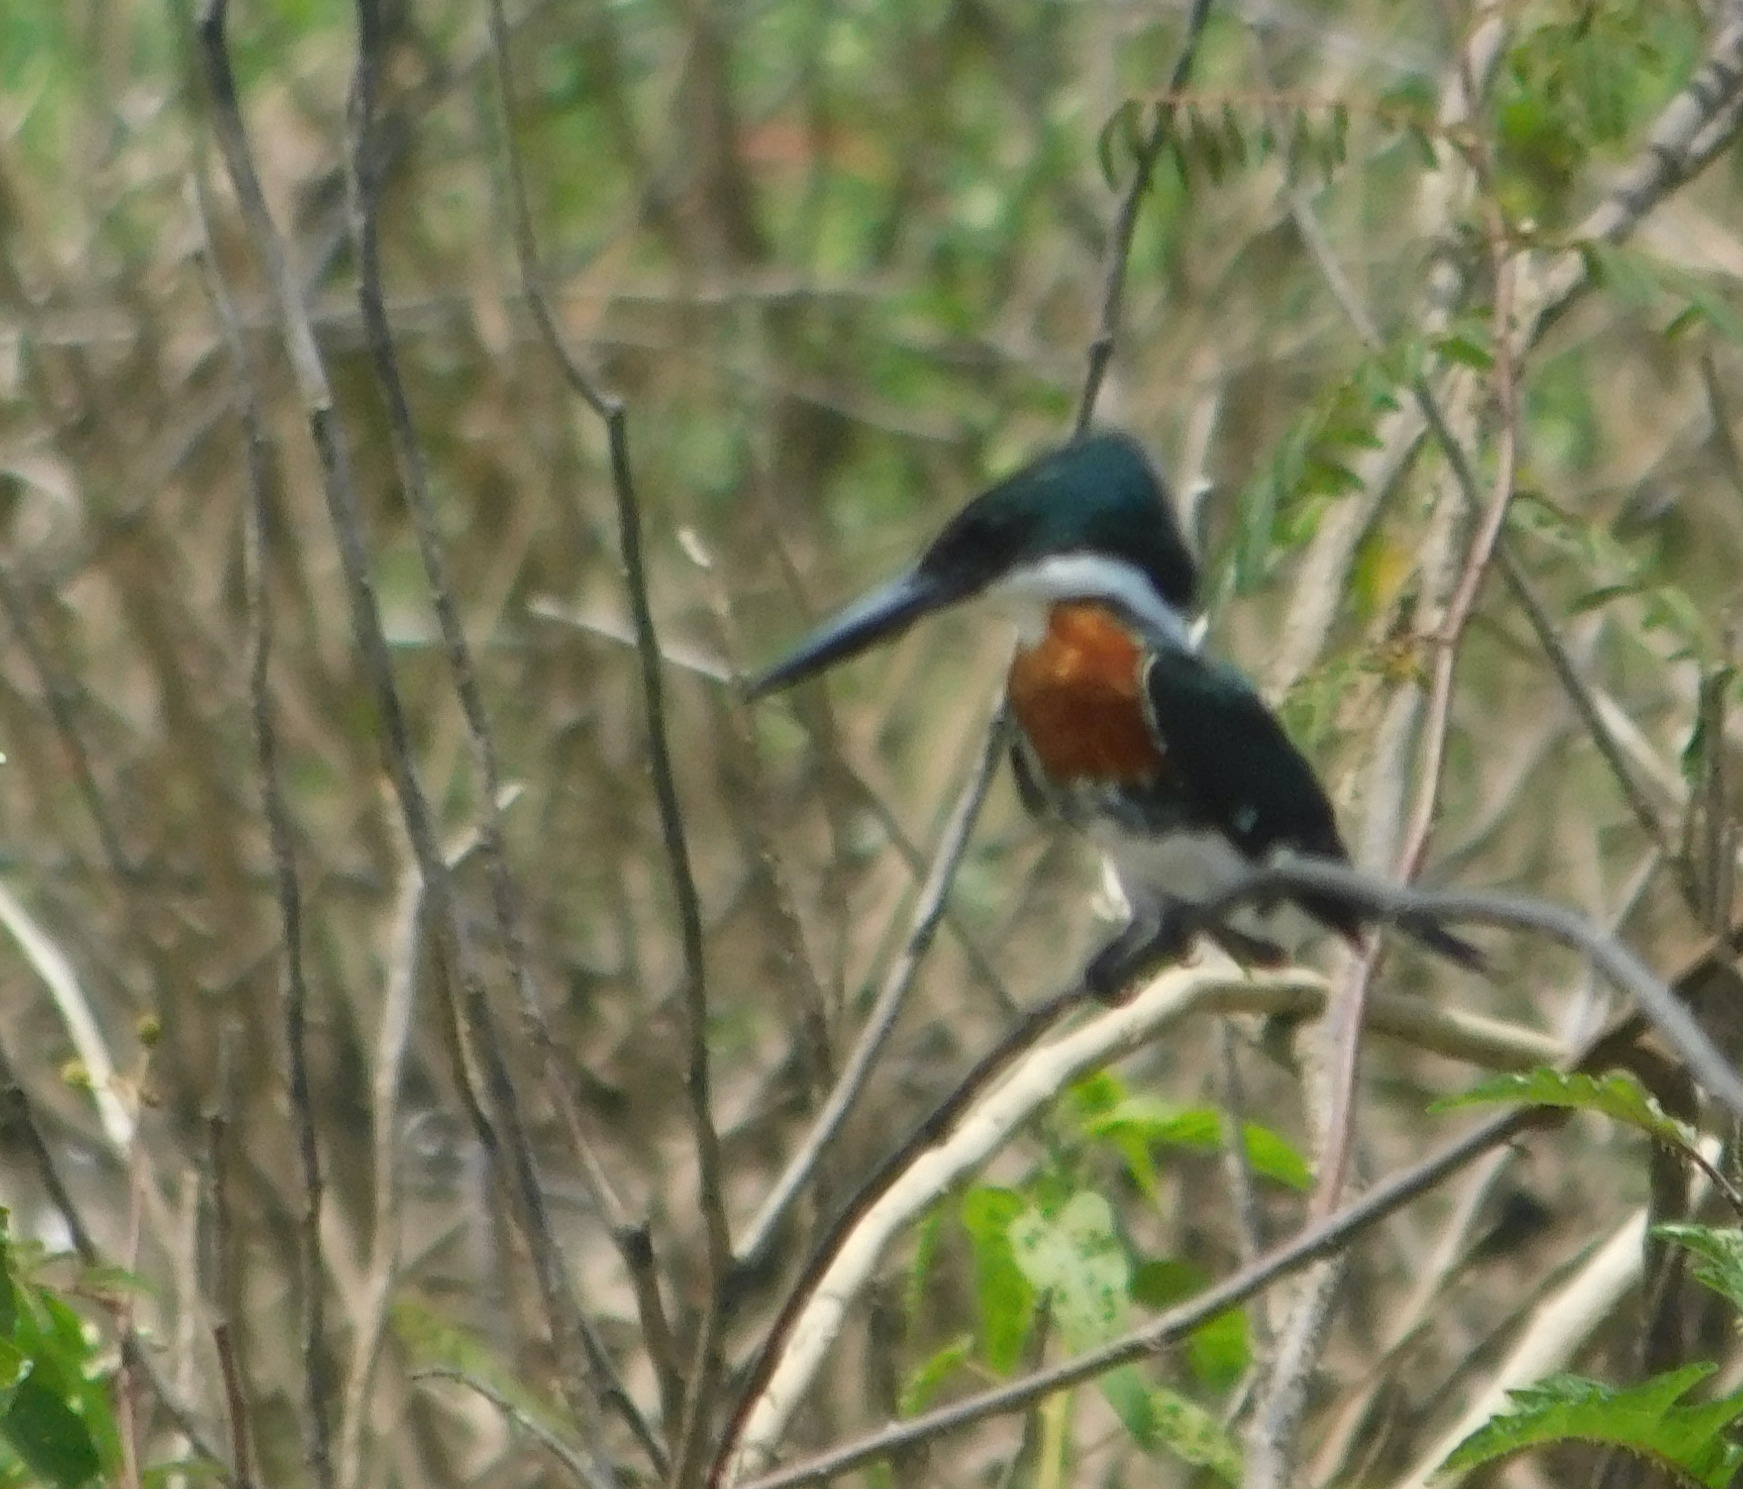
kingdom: Animalia
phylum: Chordata
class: Aves
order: Coraciiformes
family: Alcedinidae
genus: Chloroceryle
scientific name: Chloroceryle americana
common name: Green kingfisher
